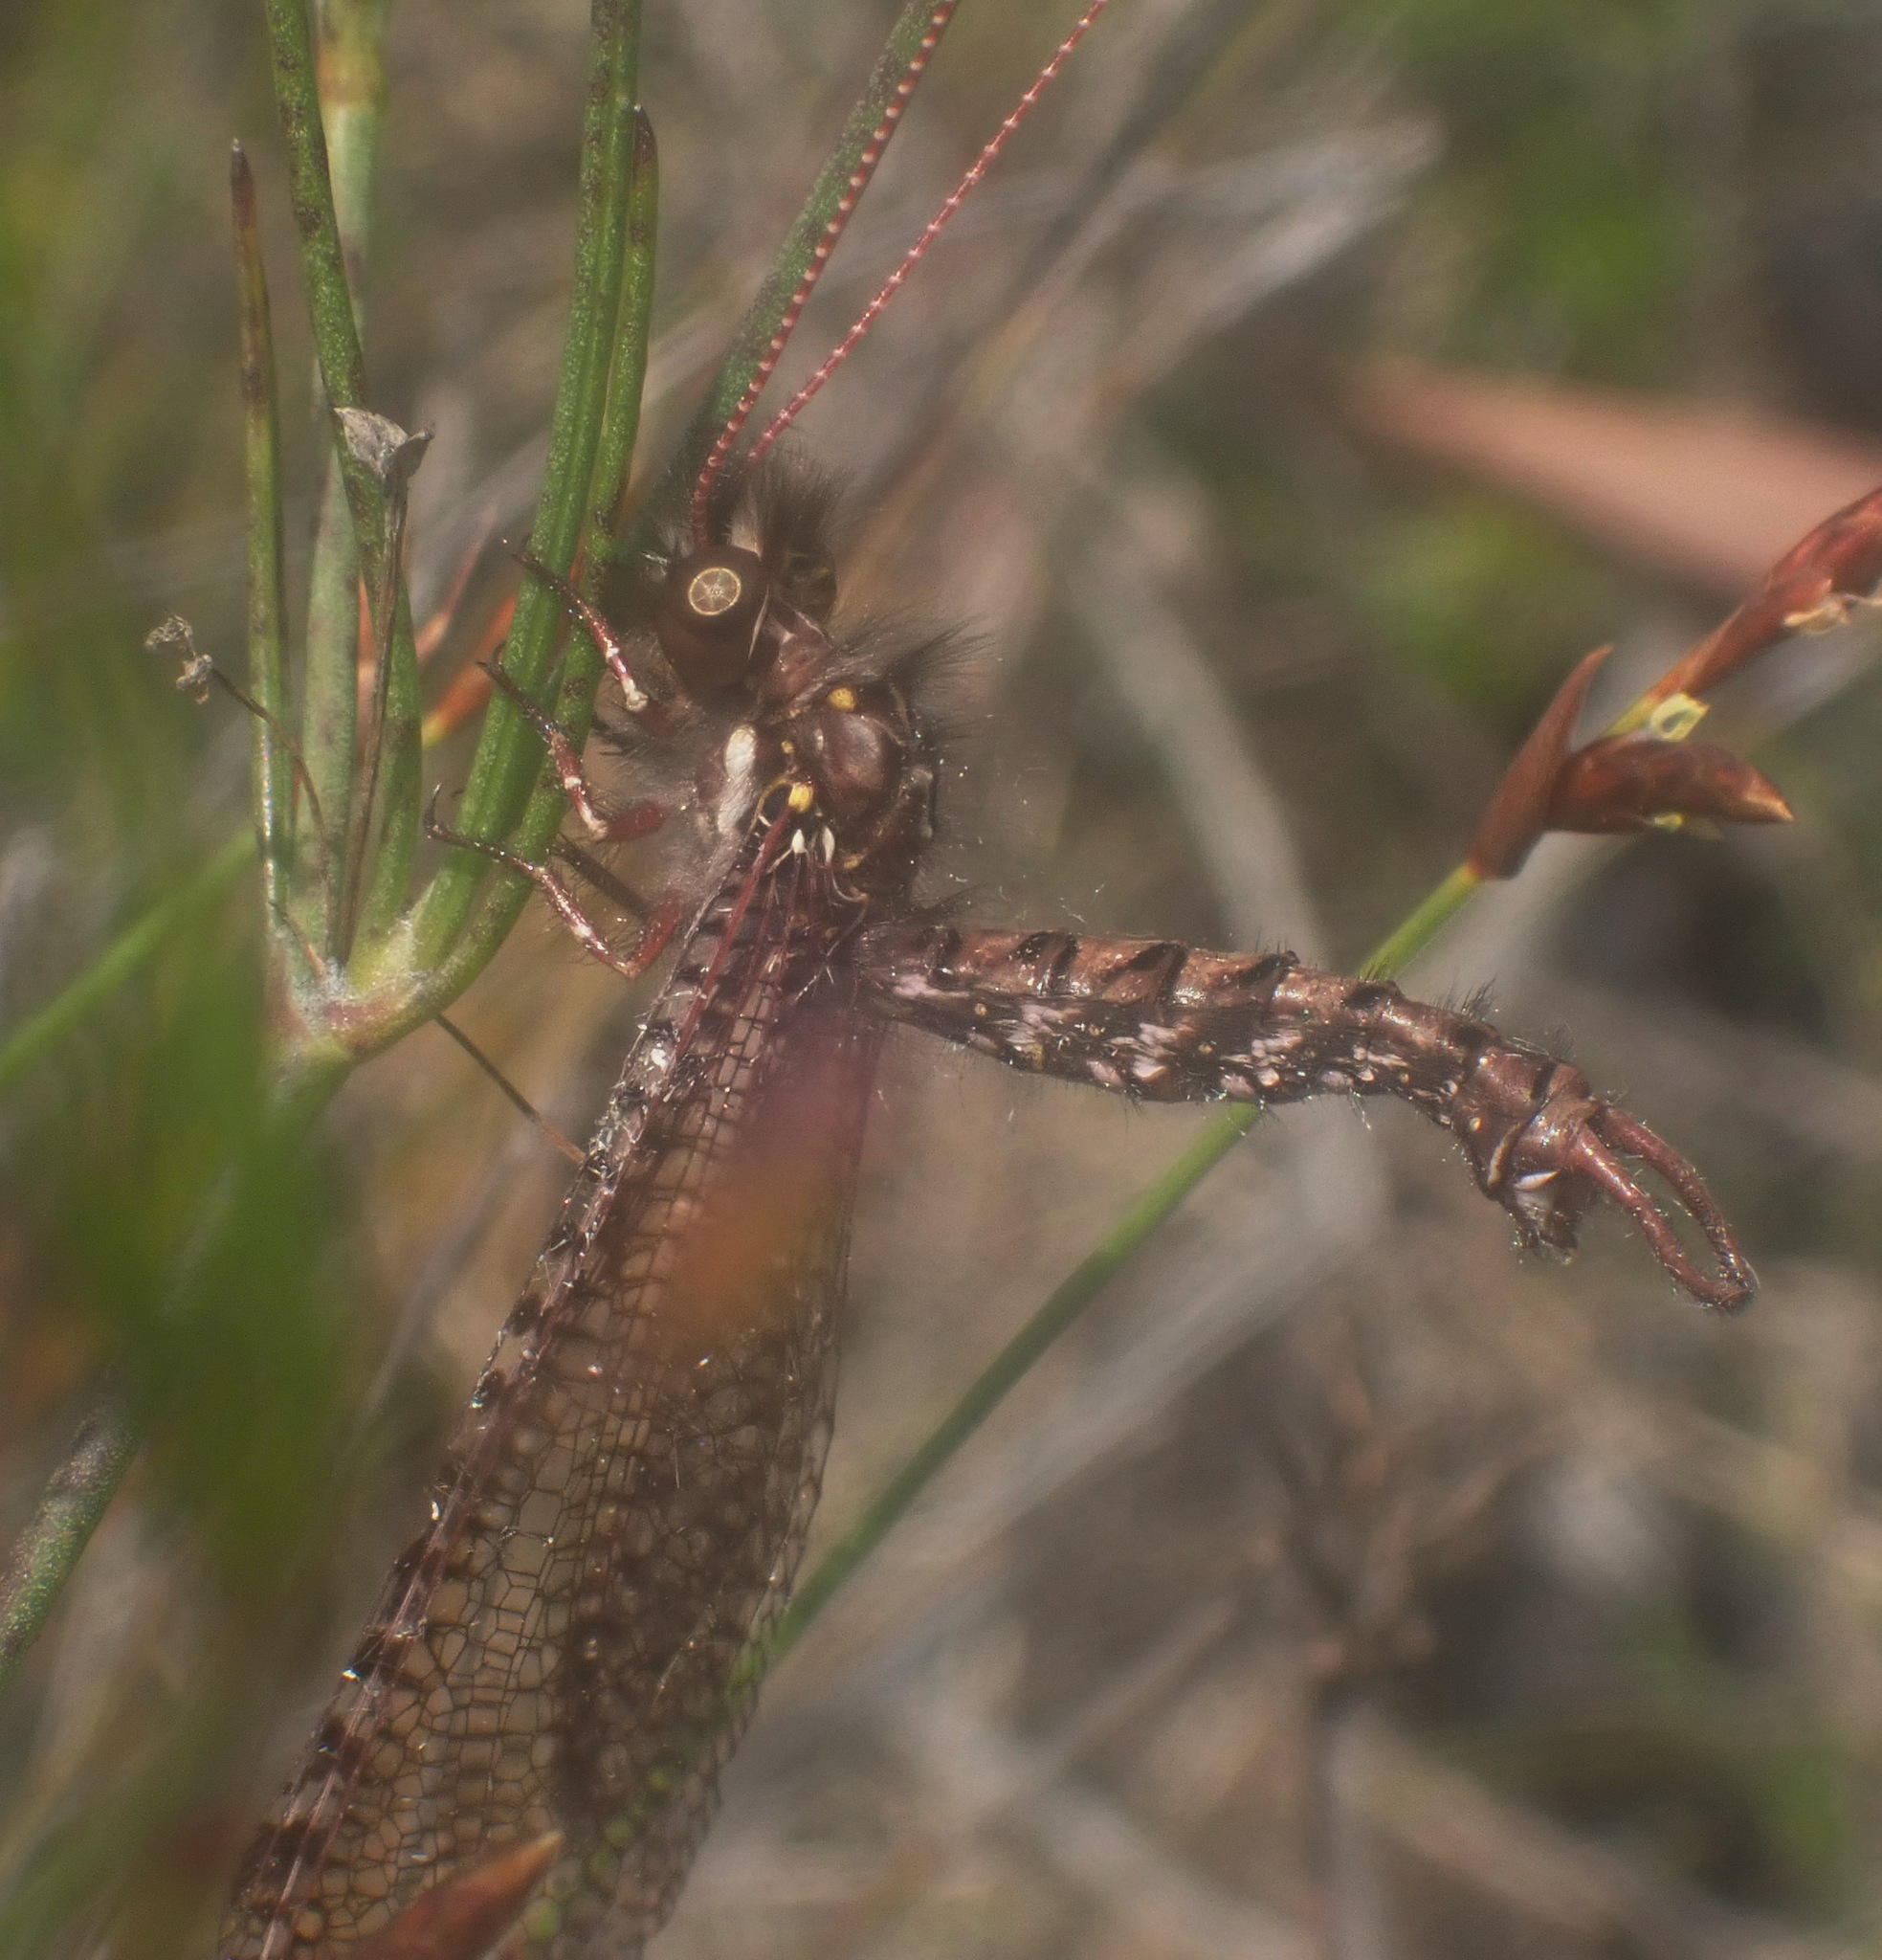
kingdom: Animalia
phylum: Arthropoda
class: Insecta
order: Neuroptera
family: Ascalaphidae
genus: Nephoneura
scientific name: Nephoneura capensis
